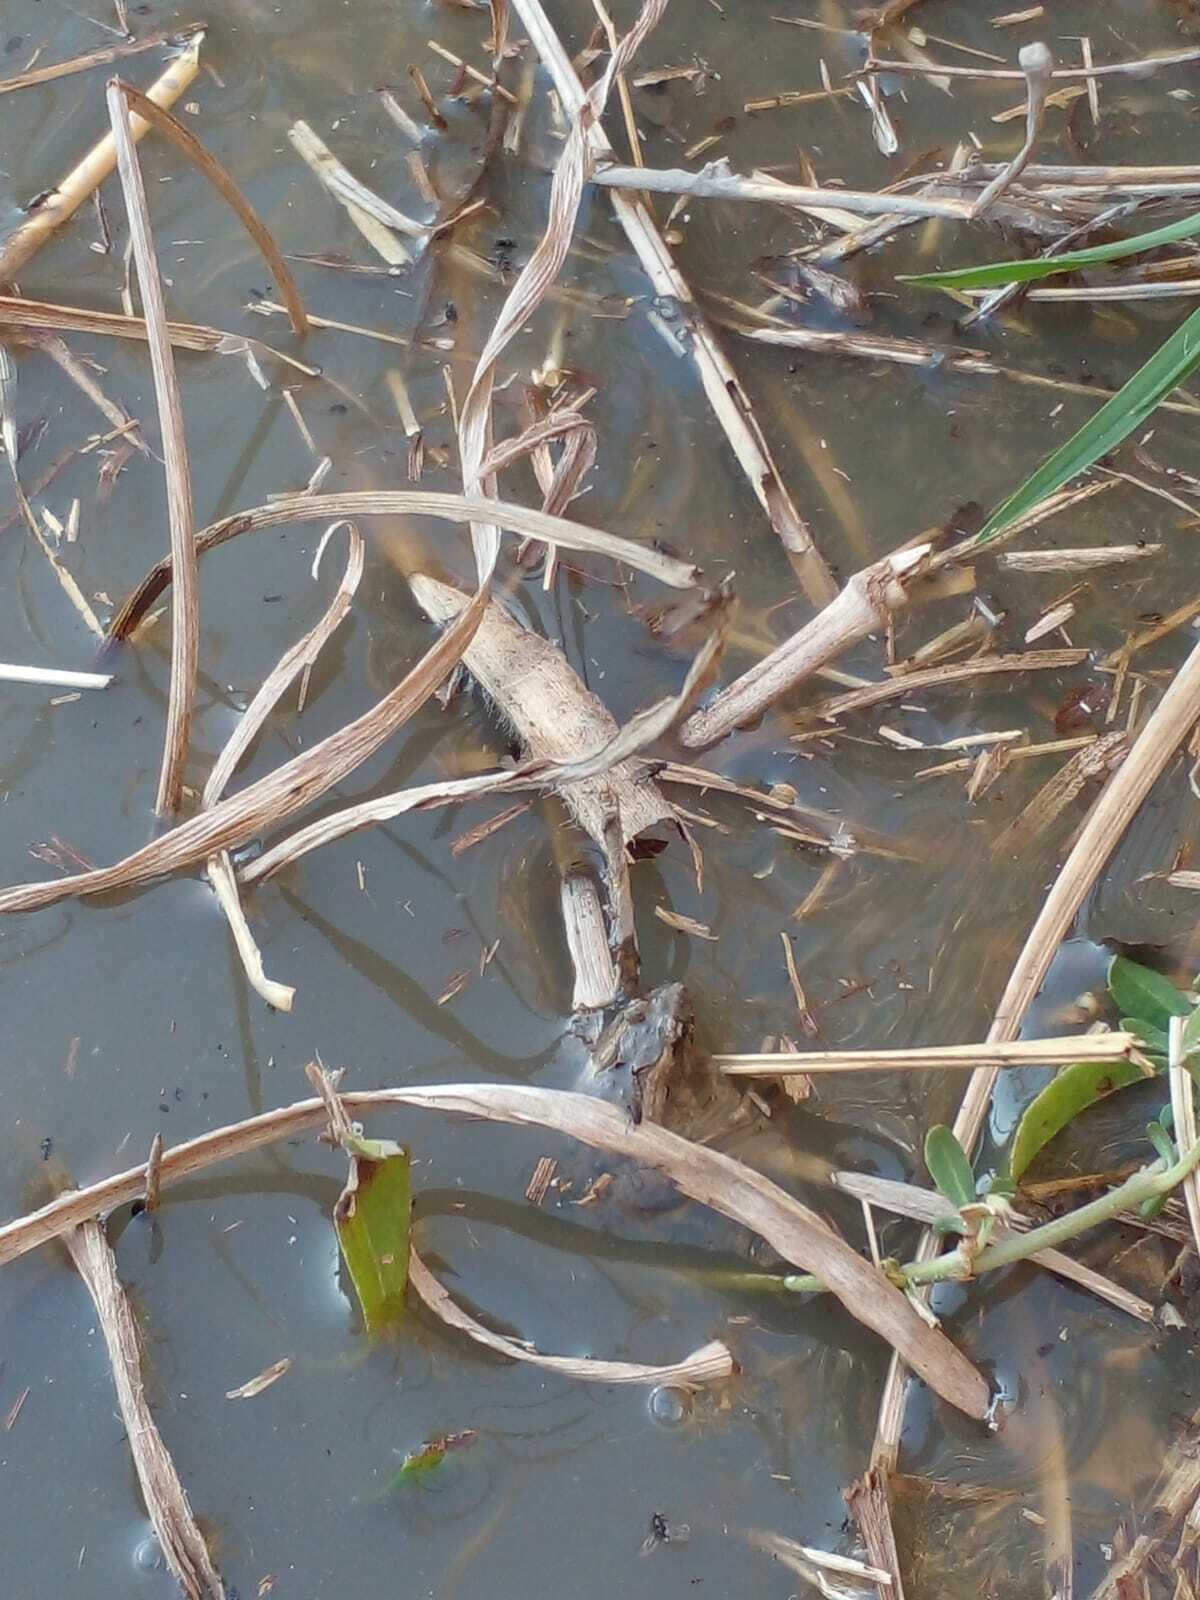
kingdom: Animalia
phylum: Chordata
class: Amphibia
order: Anura
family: Leptodactylidae
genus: Pseudopaludicola
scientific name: Pseudopaludicola falcipes
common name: Hensel’s swamp frog
